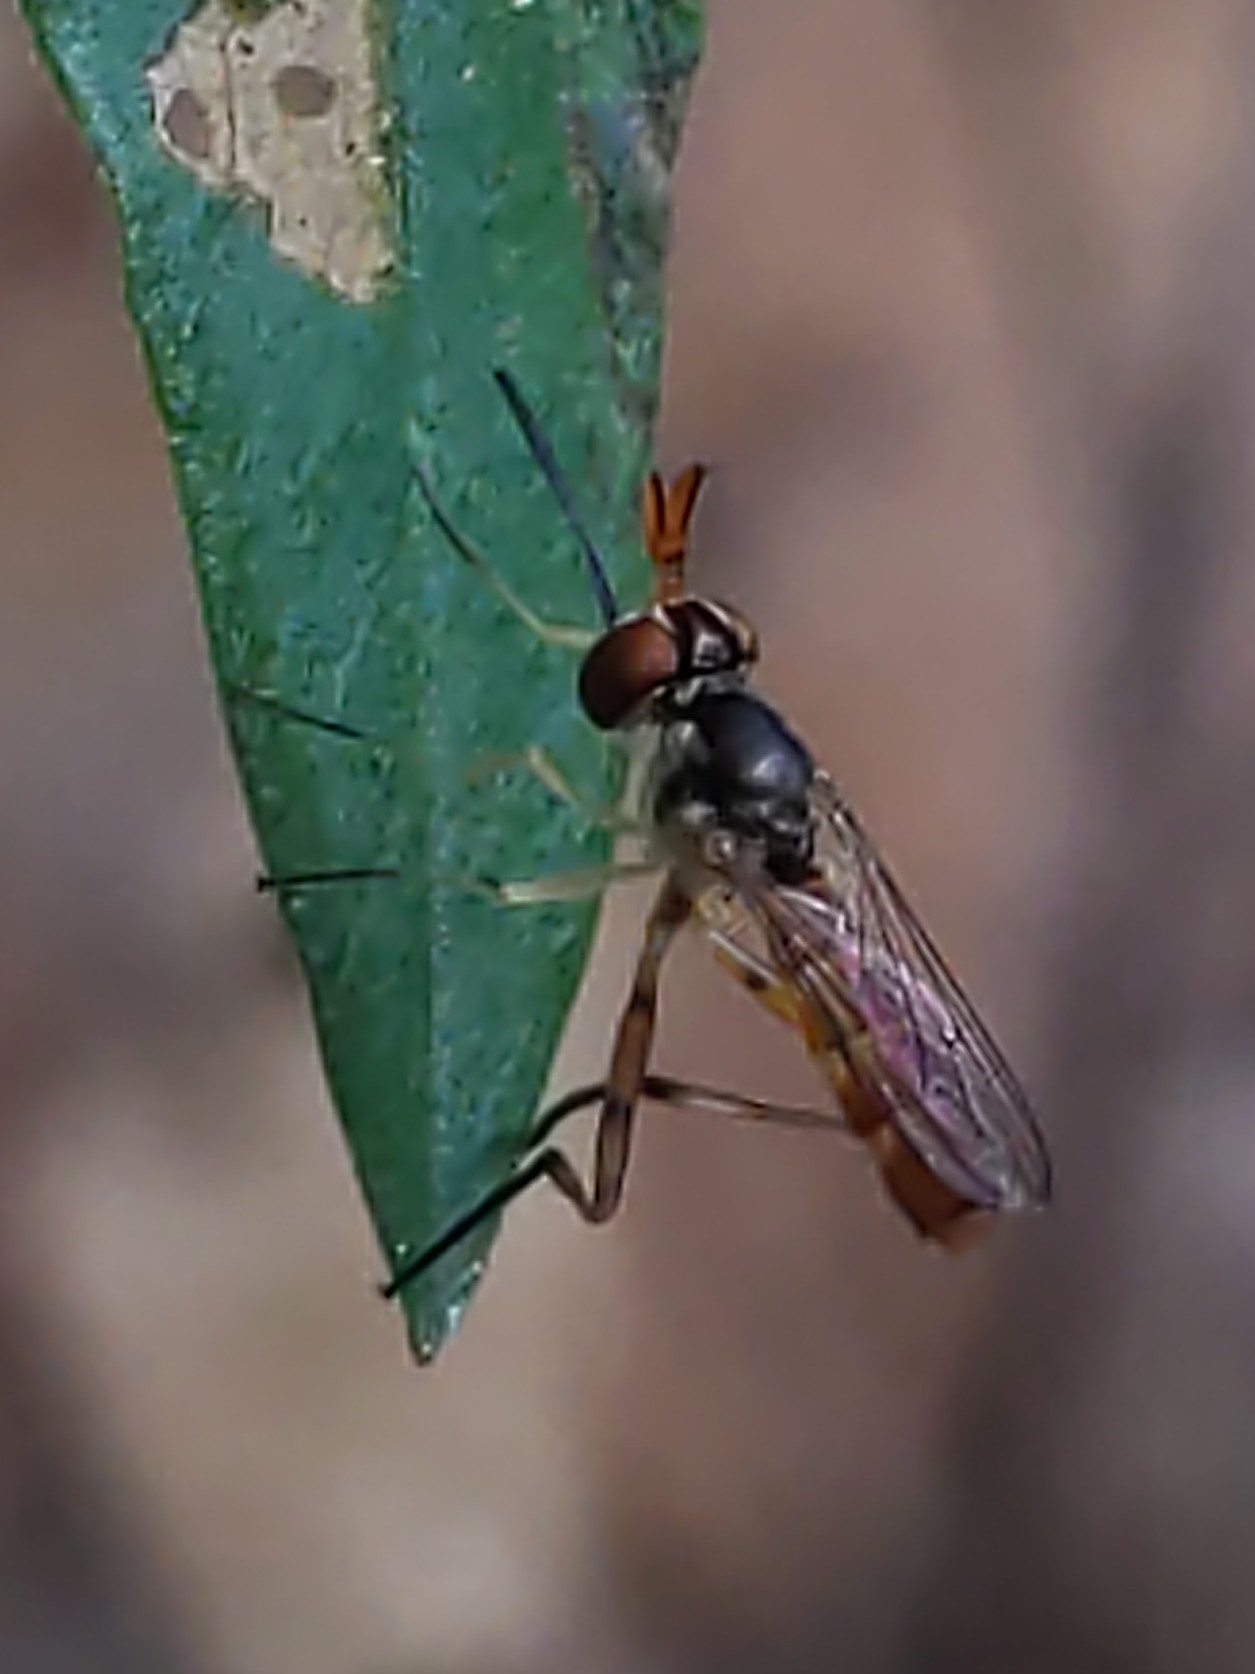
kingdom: Animalia
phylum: Arthropoda
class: Insecta
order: Diptera
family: Conopidae
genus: Stylogaster
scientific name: Stylogaster neglecta
